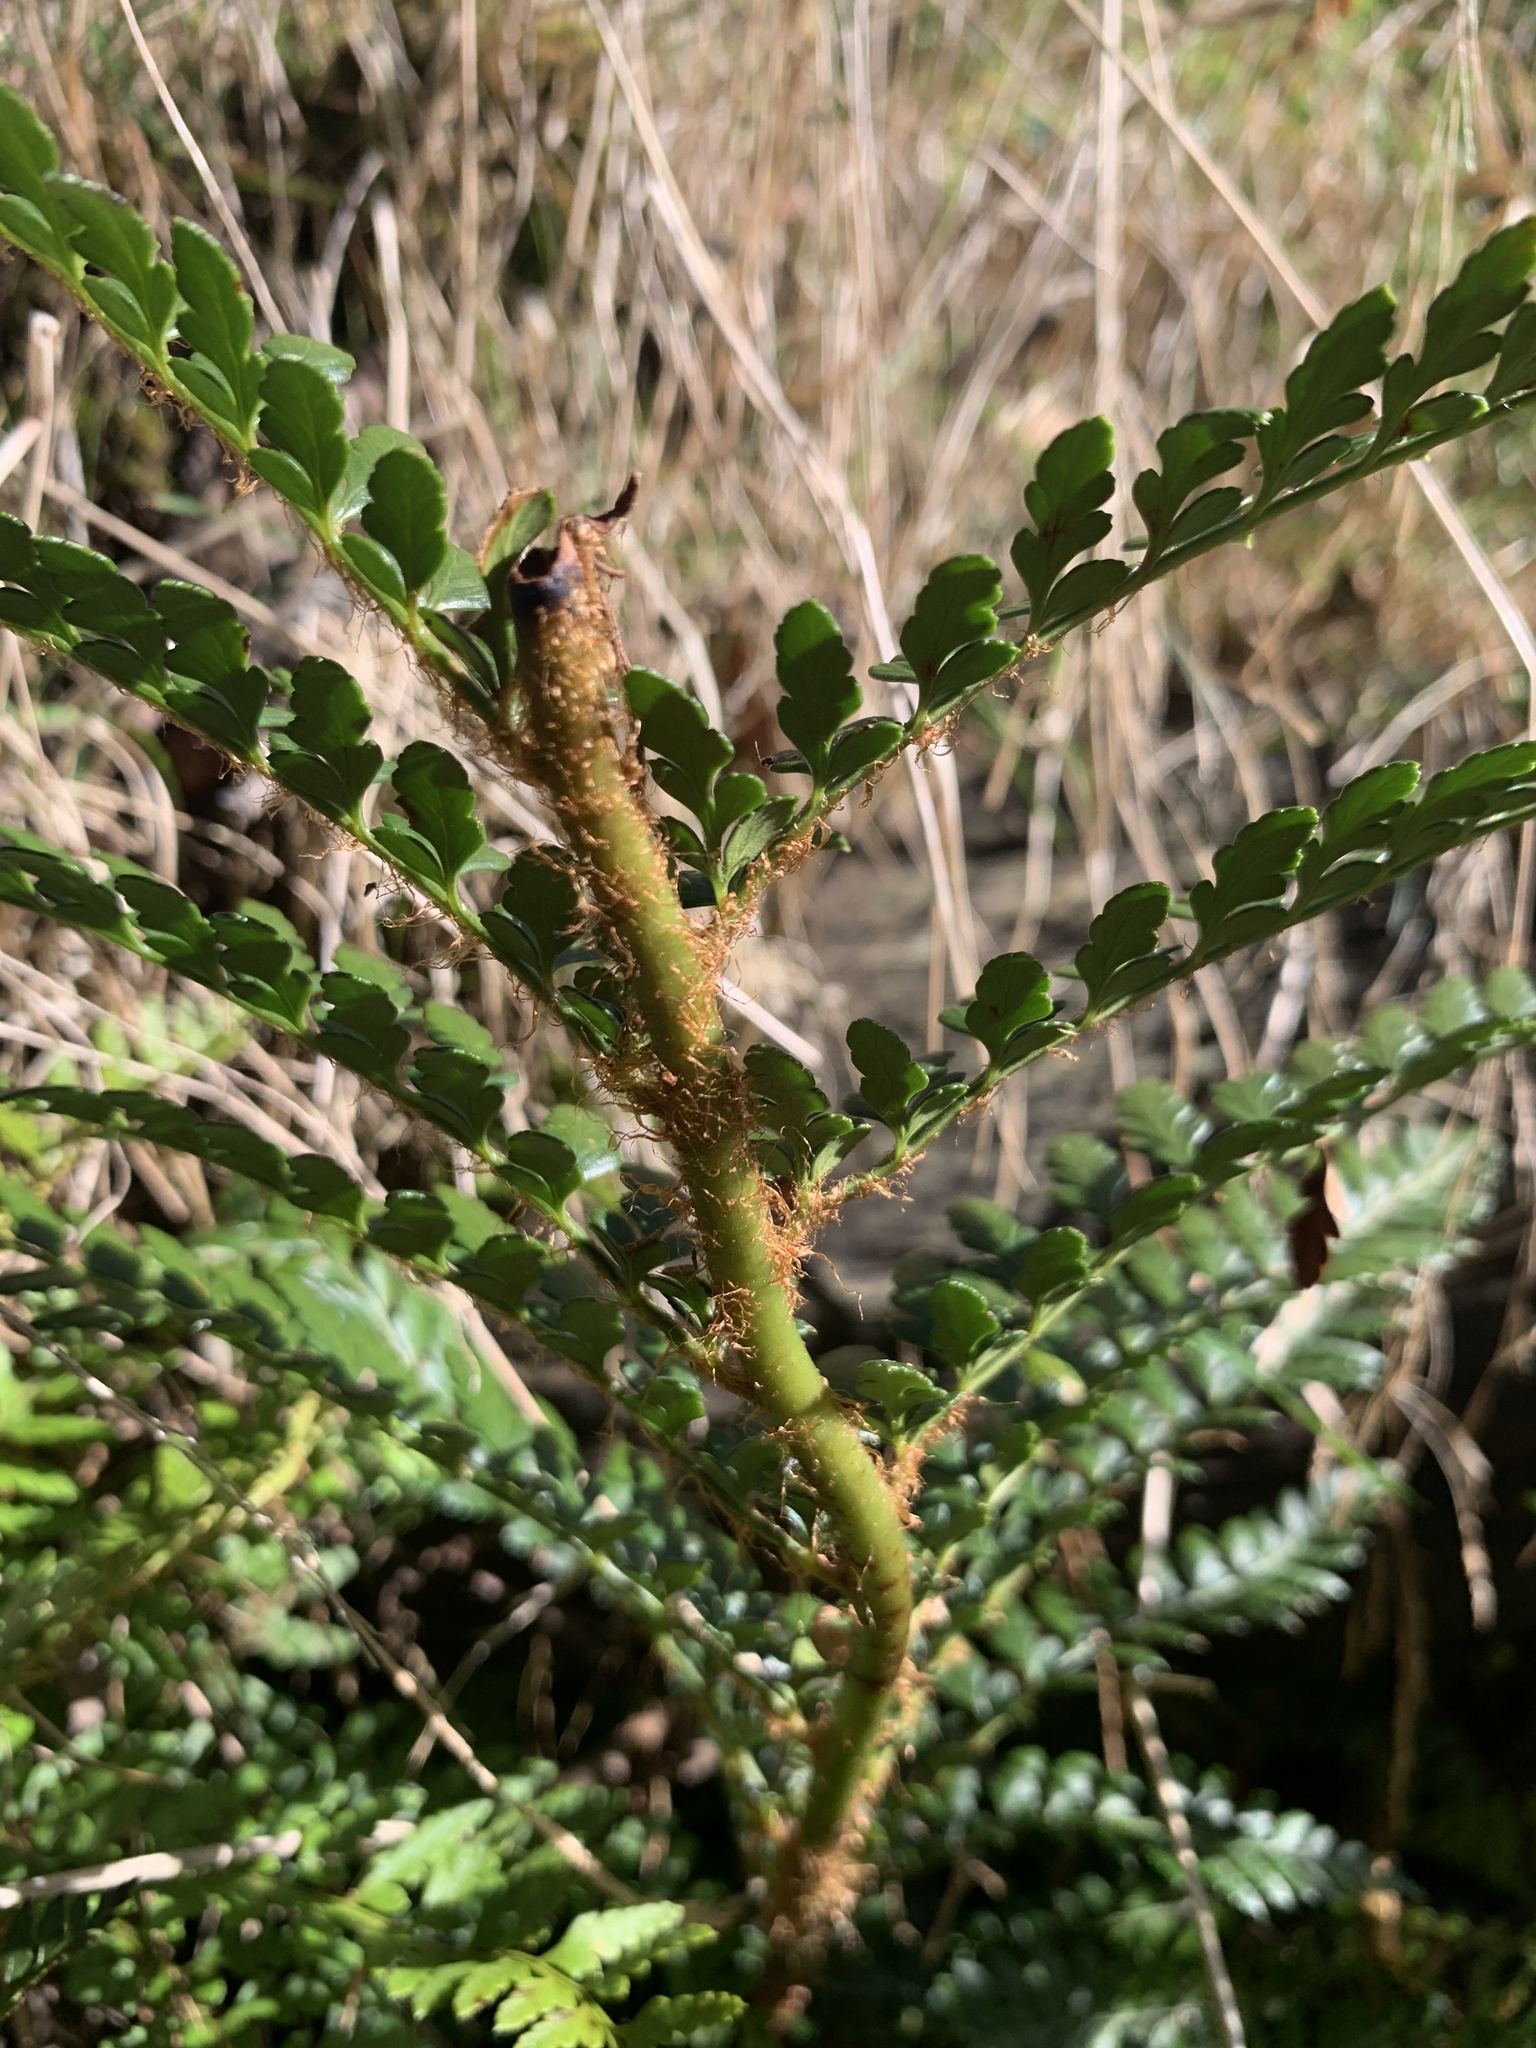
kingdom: Plantae
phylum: Tracheophyta
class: Polypodiopsida
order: Polypodiales
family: Dryopteridaceae
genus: Polystichum
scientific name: Polystichum proliferum
